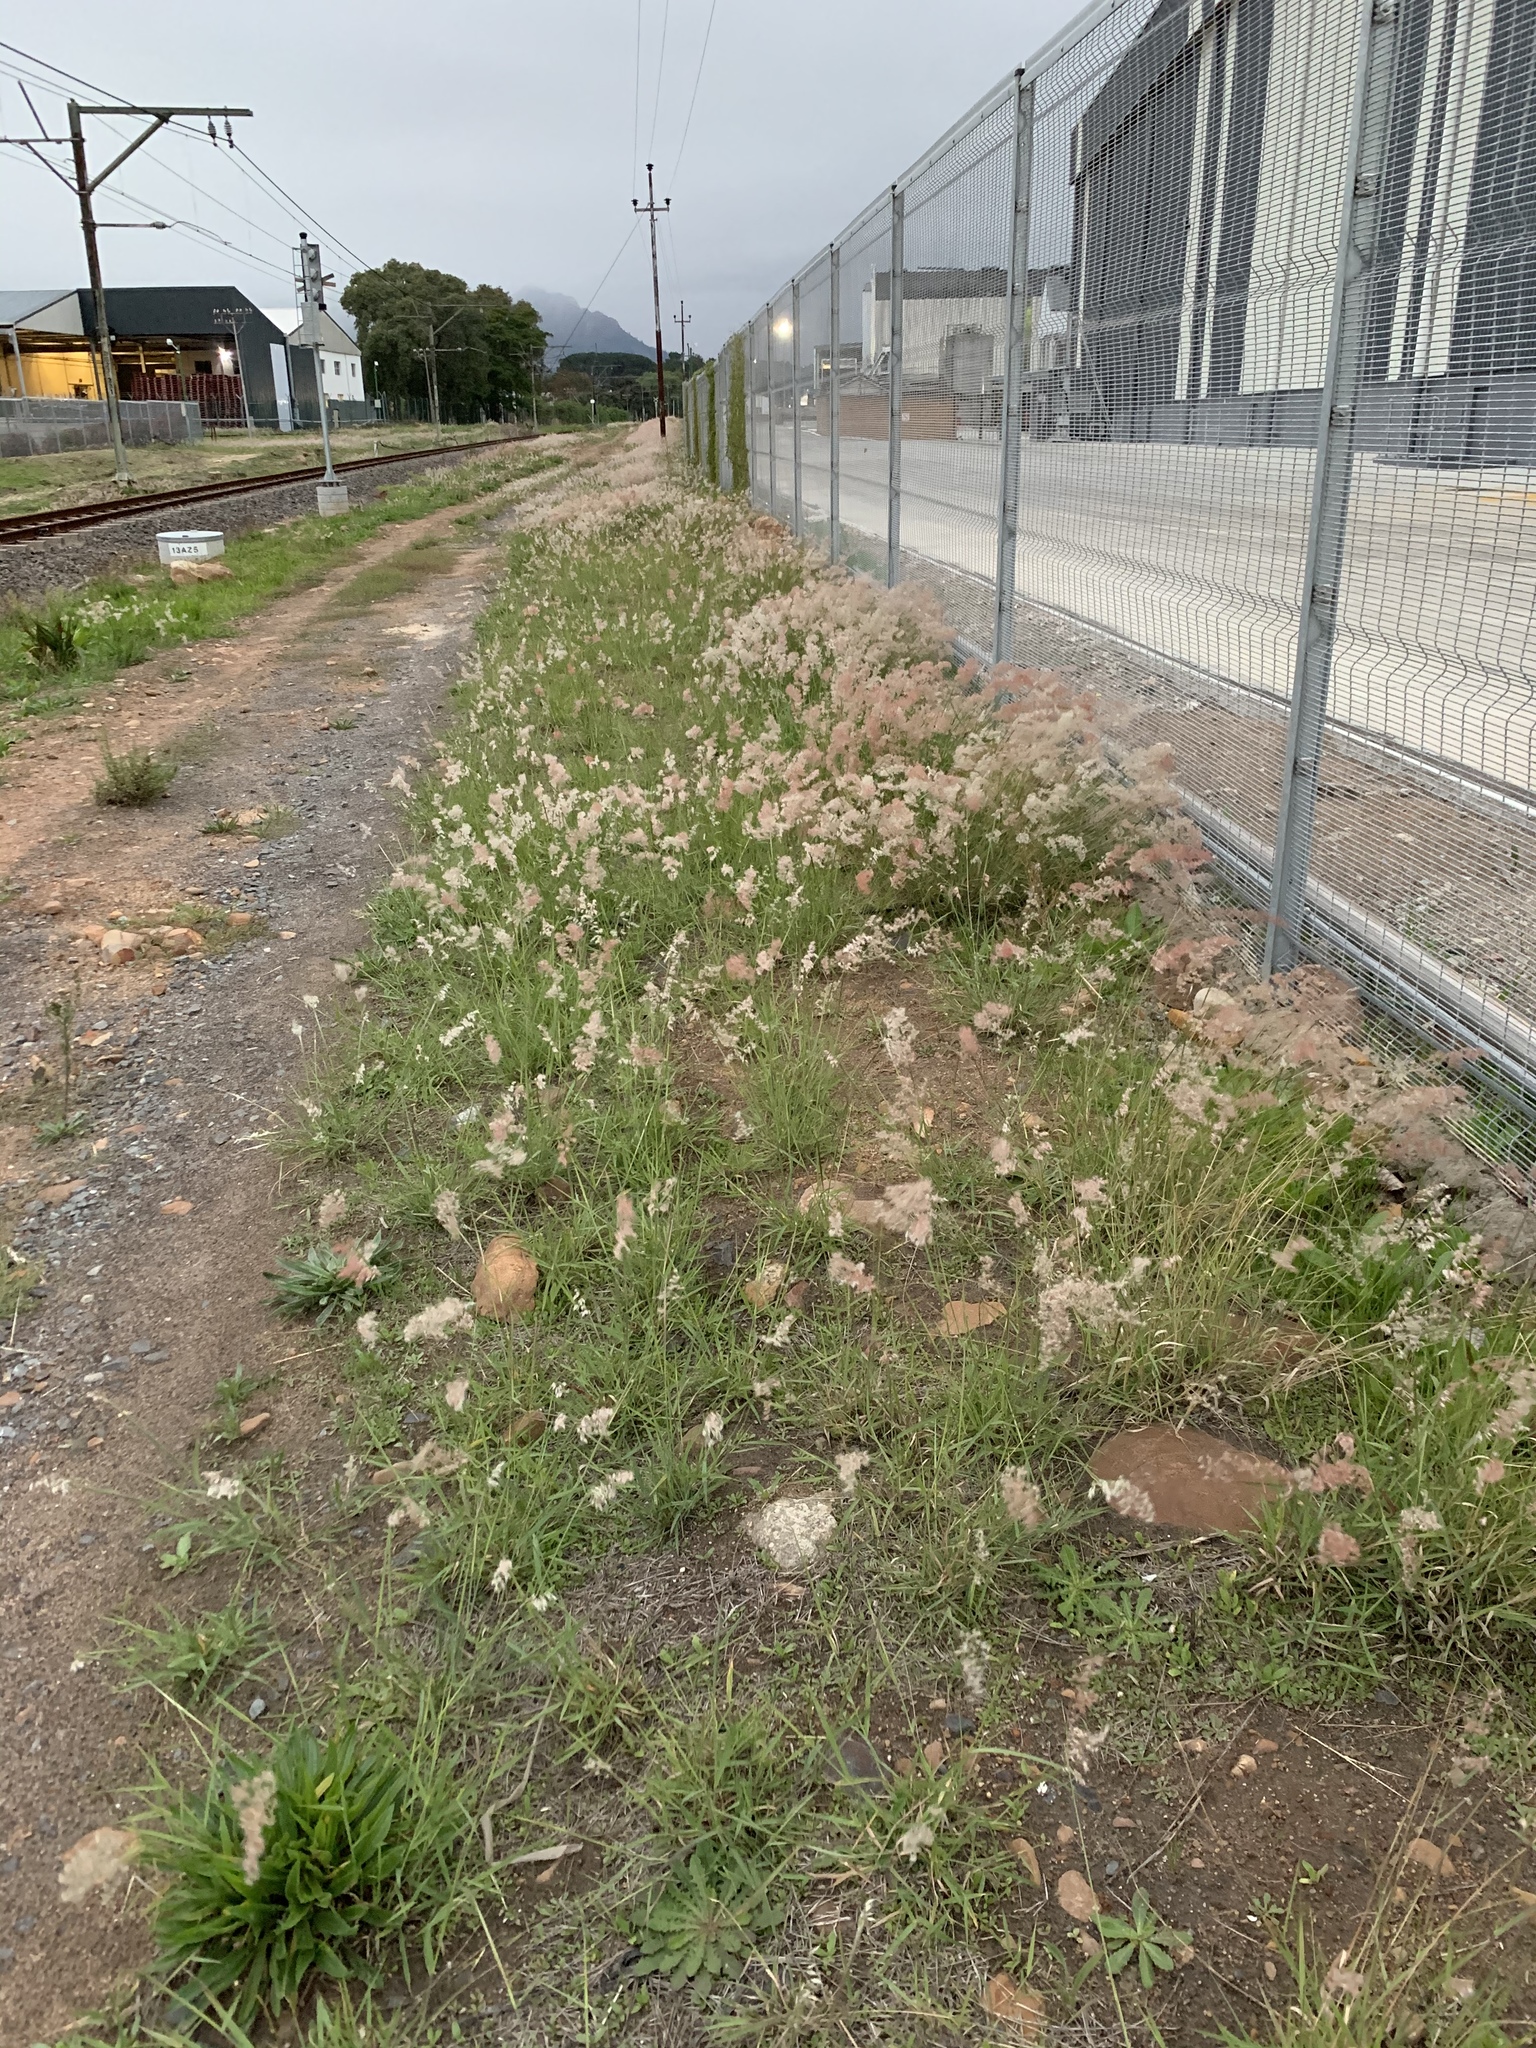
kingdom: Plantae
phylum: Tracheophyta
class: Liliopsida
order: Poales
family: Poaceae
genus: Melinis
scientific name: Melinis repens
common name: Rose natal grass
